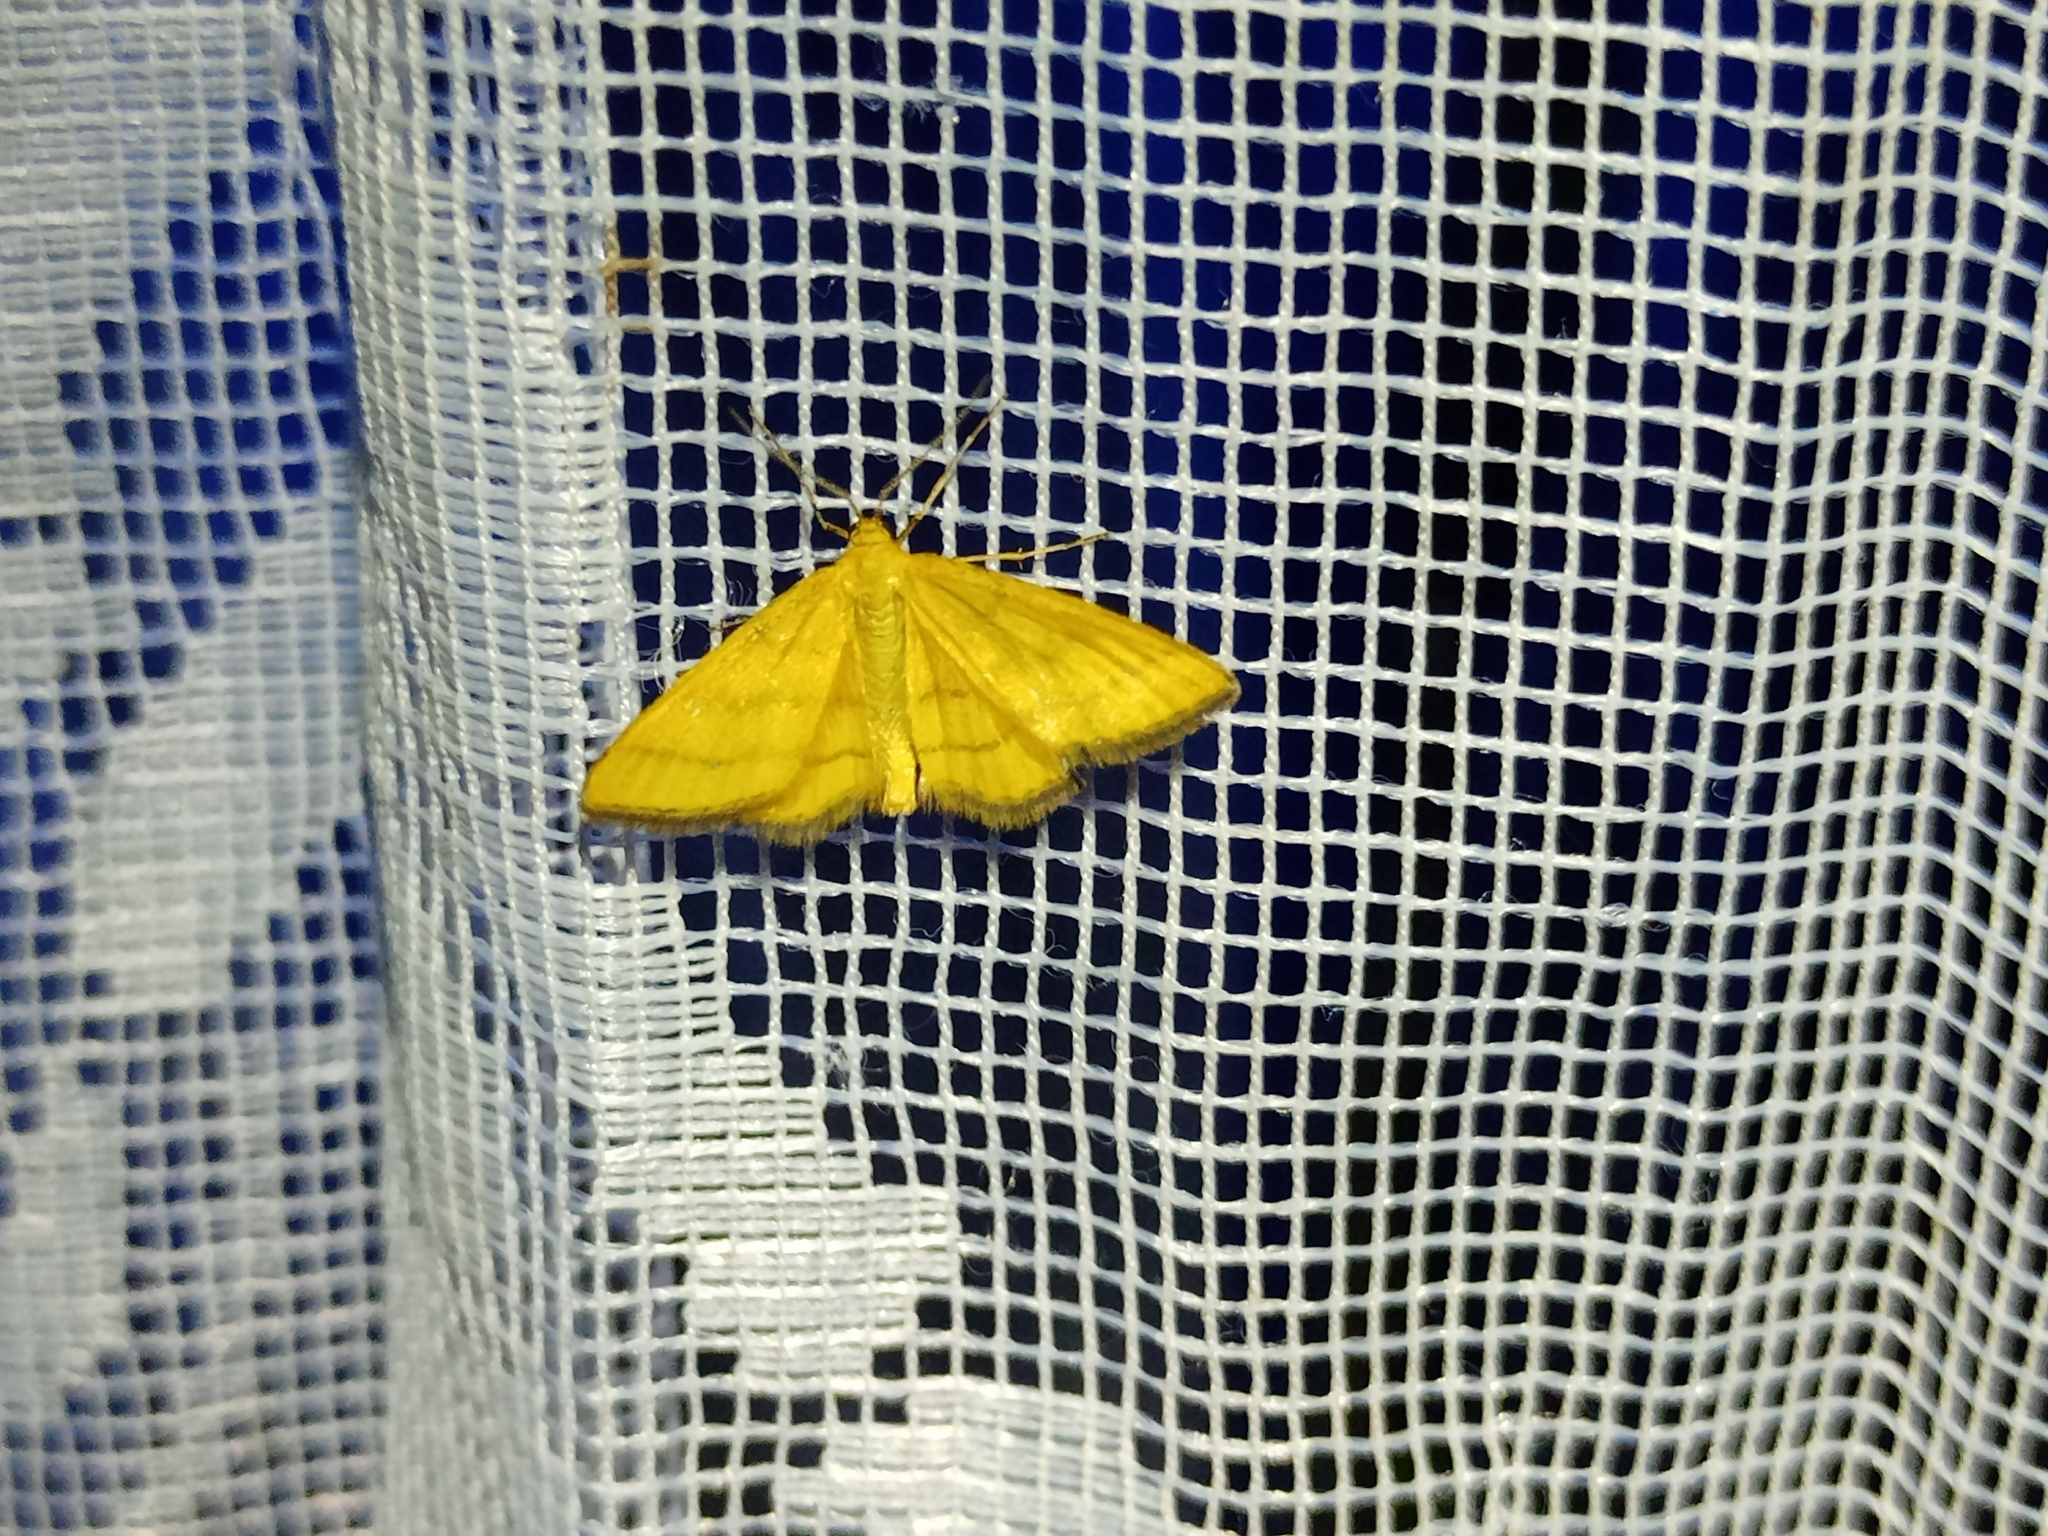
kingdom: Animalia
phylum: Arthropoda
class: Insecta
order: Lepidoptera
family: Geometridae
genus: Idaea
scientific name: Idaea aureolaria
